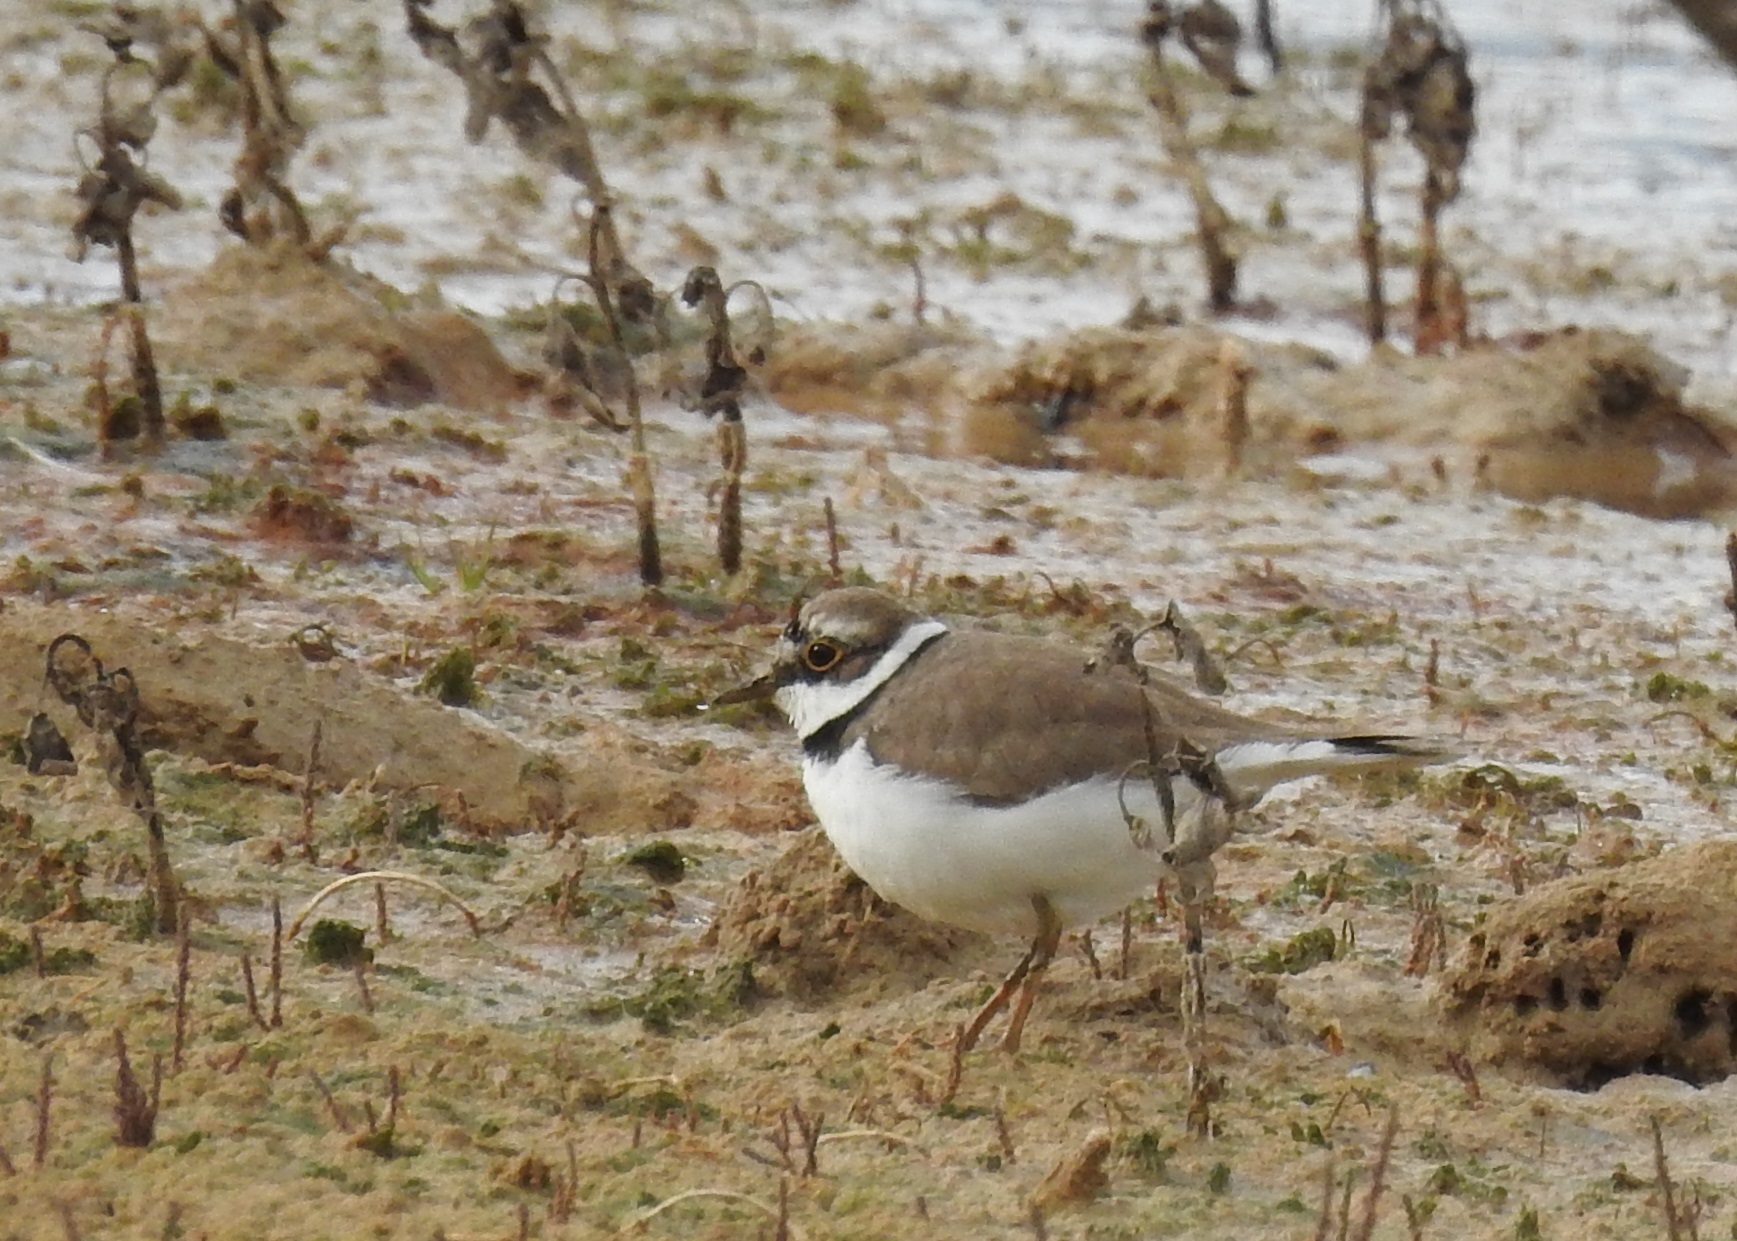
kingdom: Animalia
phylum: Chordata
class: Aves
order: Charadriiformes
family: Charadriidae
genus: Charadrius
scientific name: Charadrius dubius
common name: Little ringed plover
